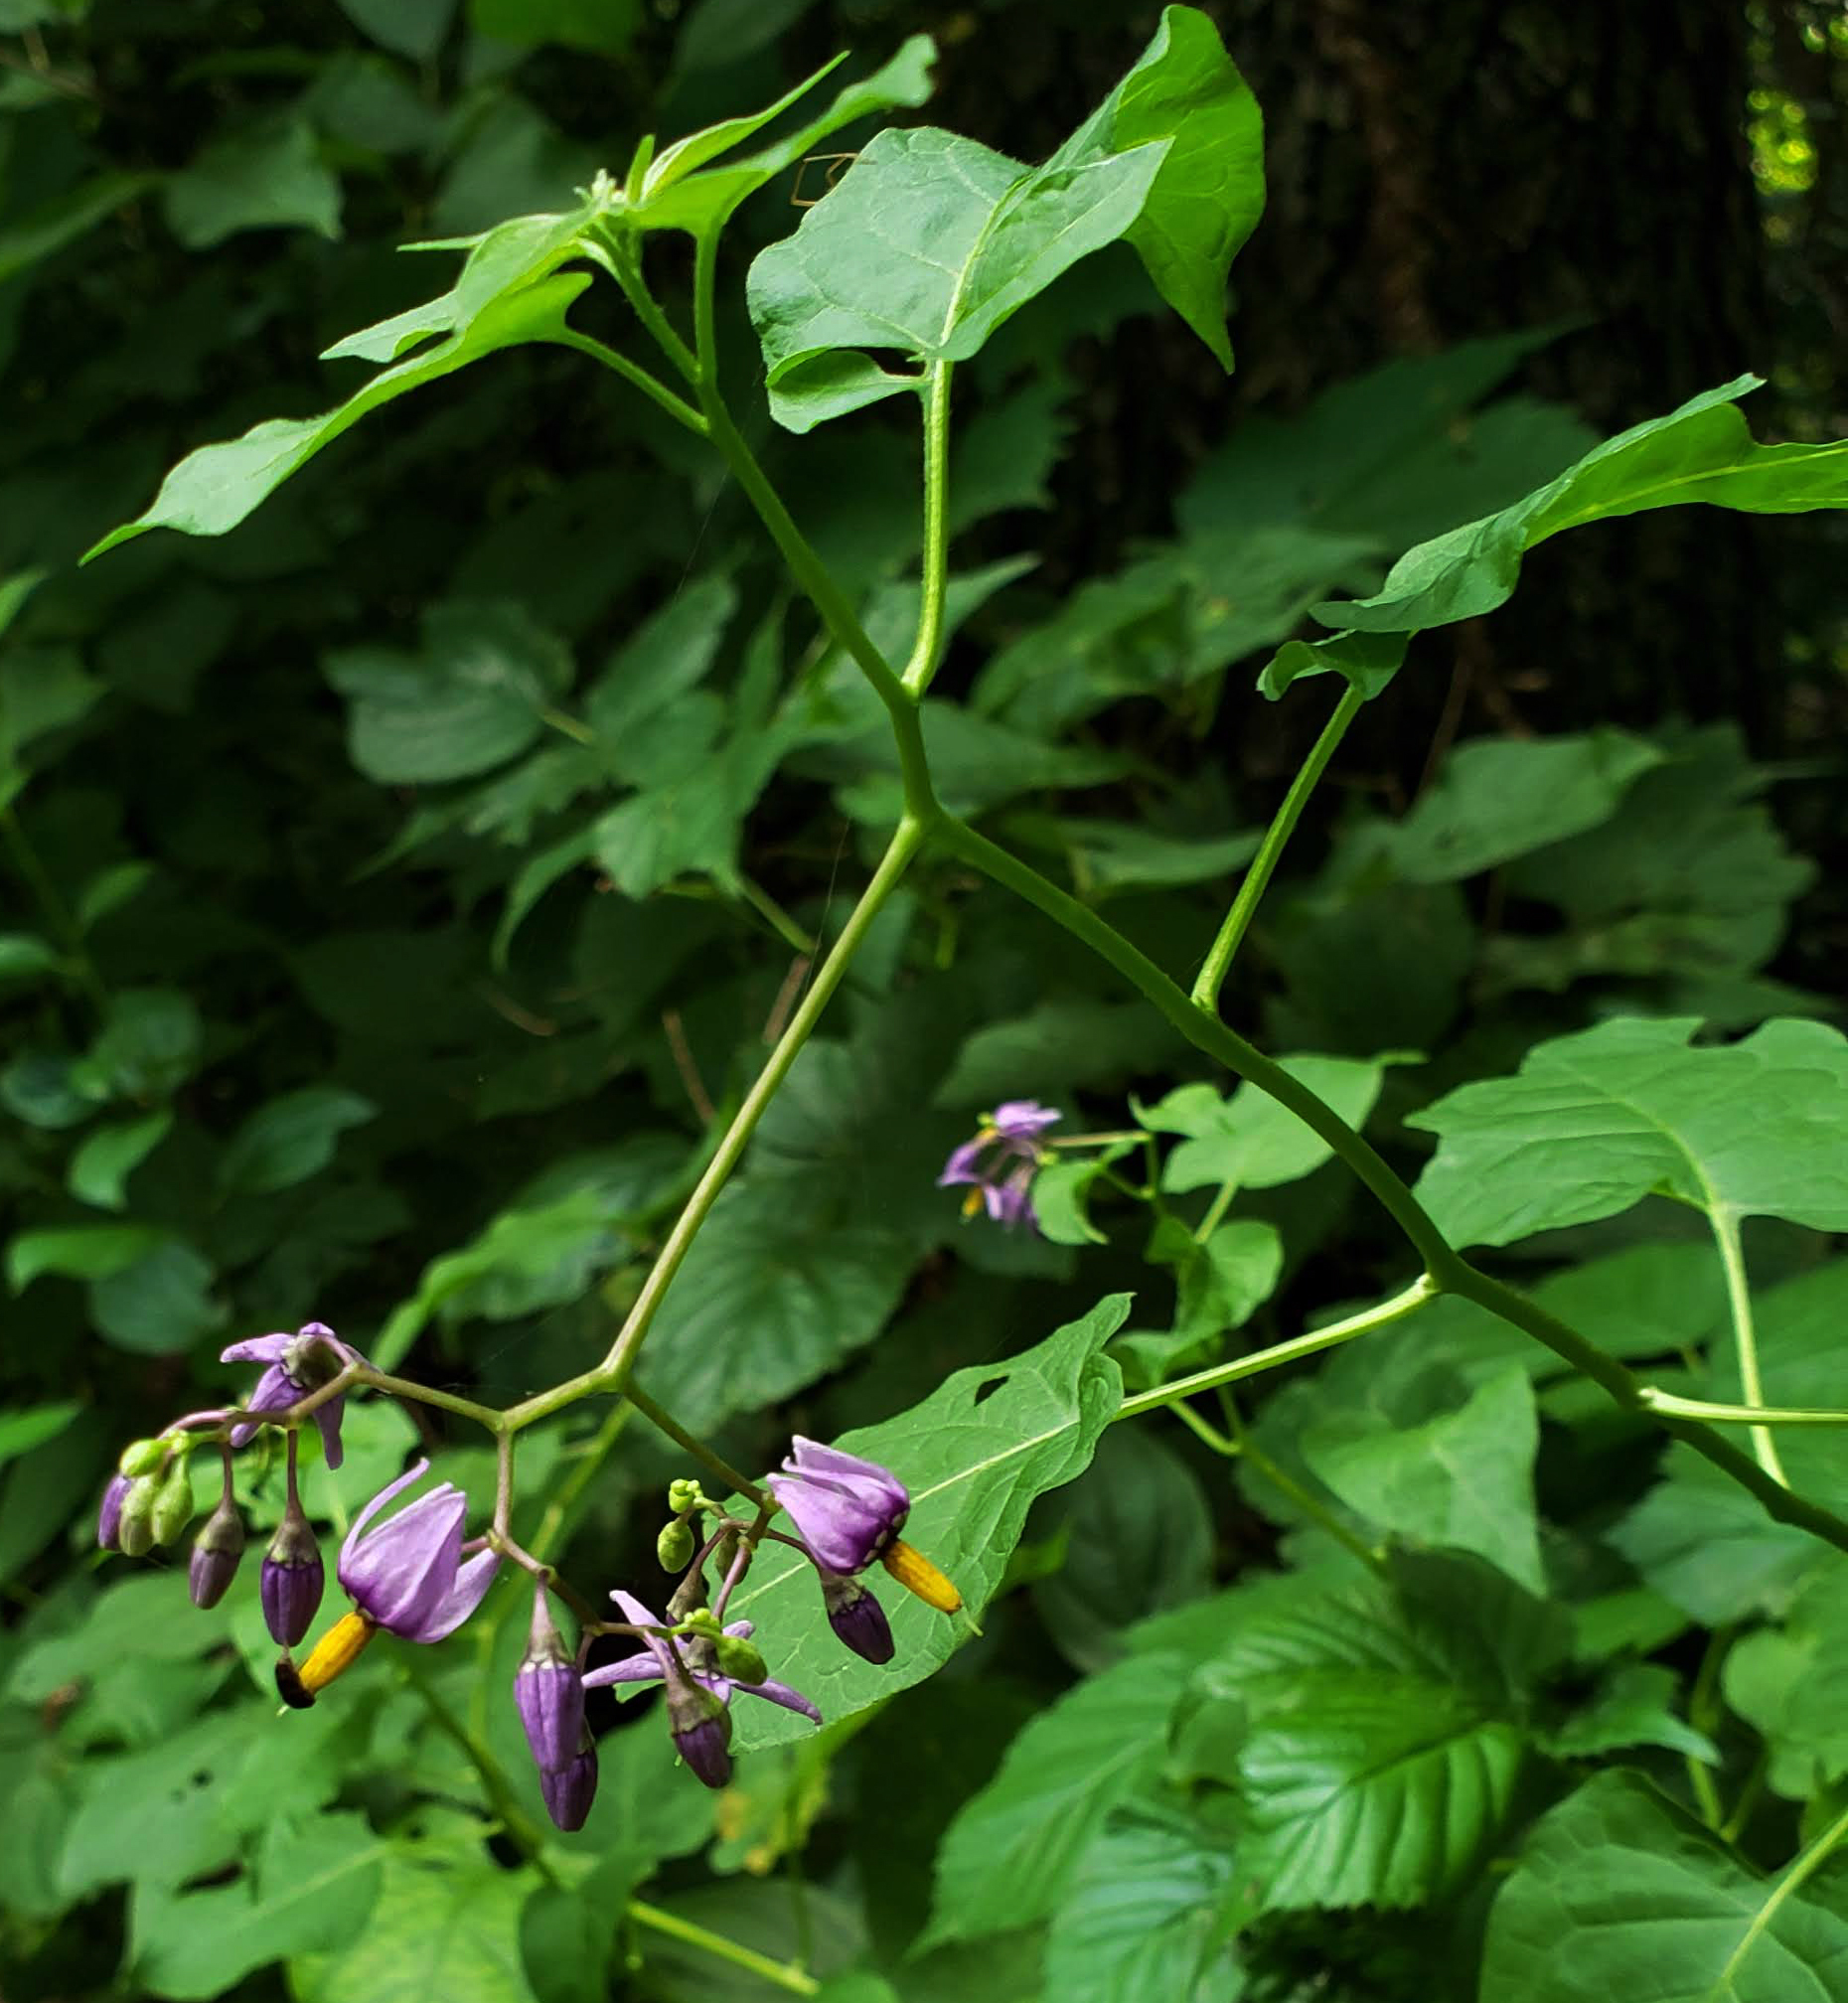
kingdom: Plantae
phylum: Tracheophyta
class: Magnoliopsida
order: Solanales
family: Solanaceae
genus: Solanum
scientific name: Solanum dulcamara
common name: Climbing nightshade
